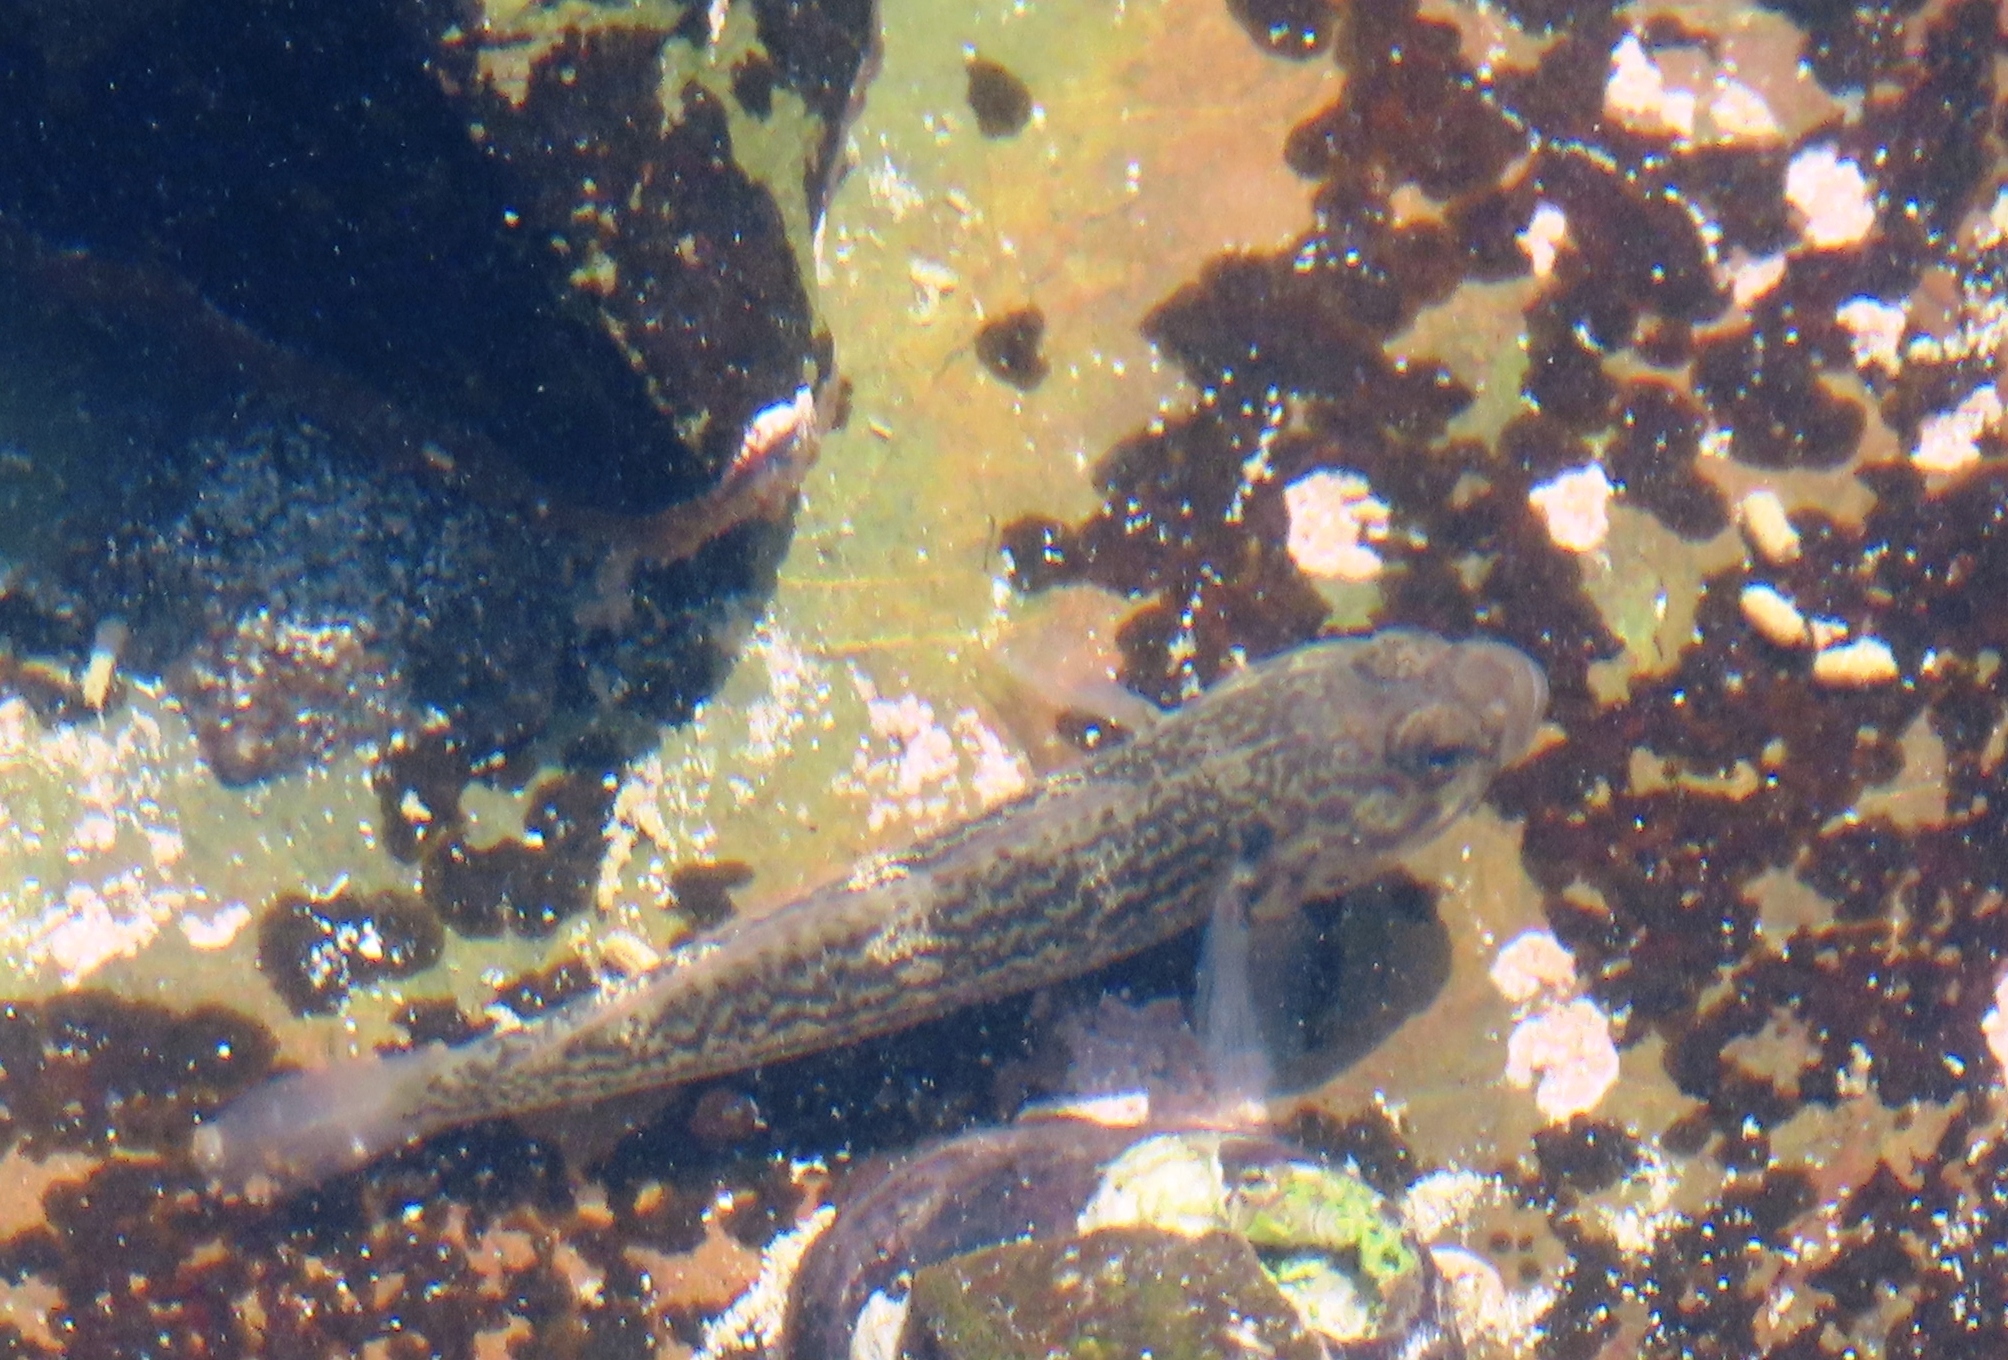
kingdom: Animalia
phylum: Chordata
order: Perciformes
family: Gobiidae
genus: Caffrogobius
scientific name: Caffrogobius caffer
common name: Banded goby
